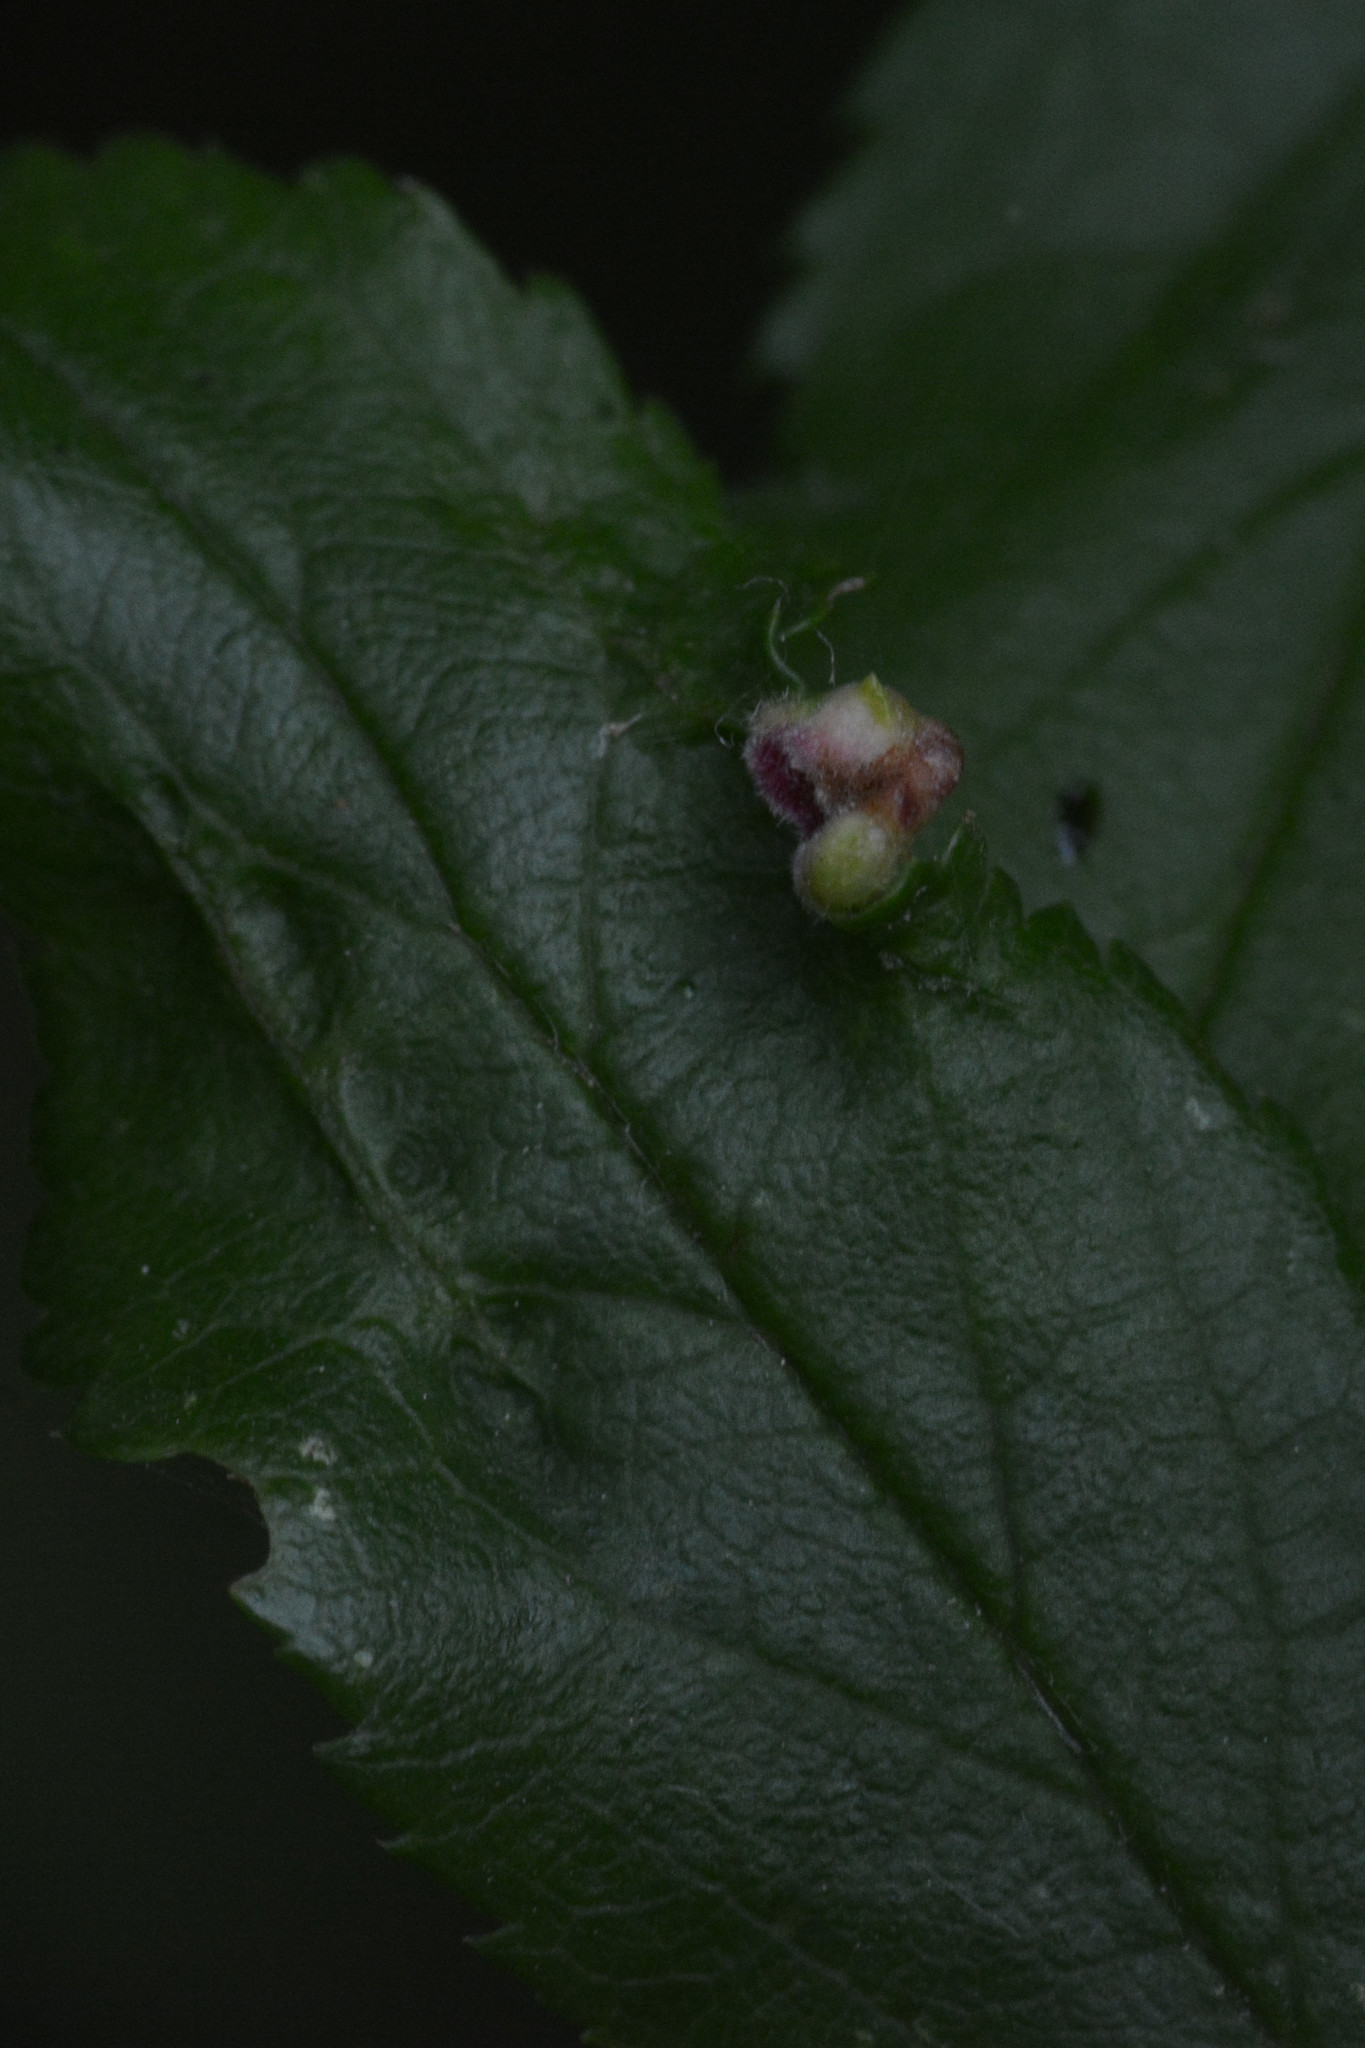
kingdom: Animalia
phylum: Arthropoda
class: Arachnida
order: Trombidiformes
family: Eriophyidae
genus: Eriophyes
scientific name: Eriophyes similis
